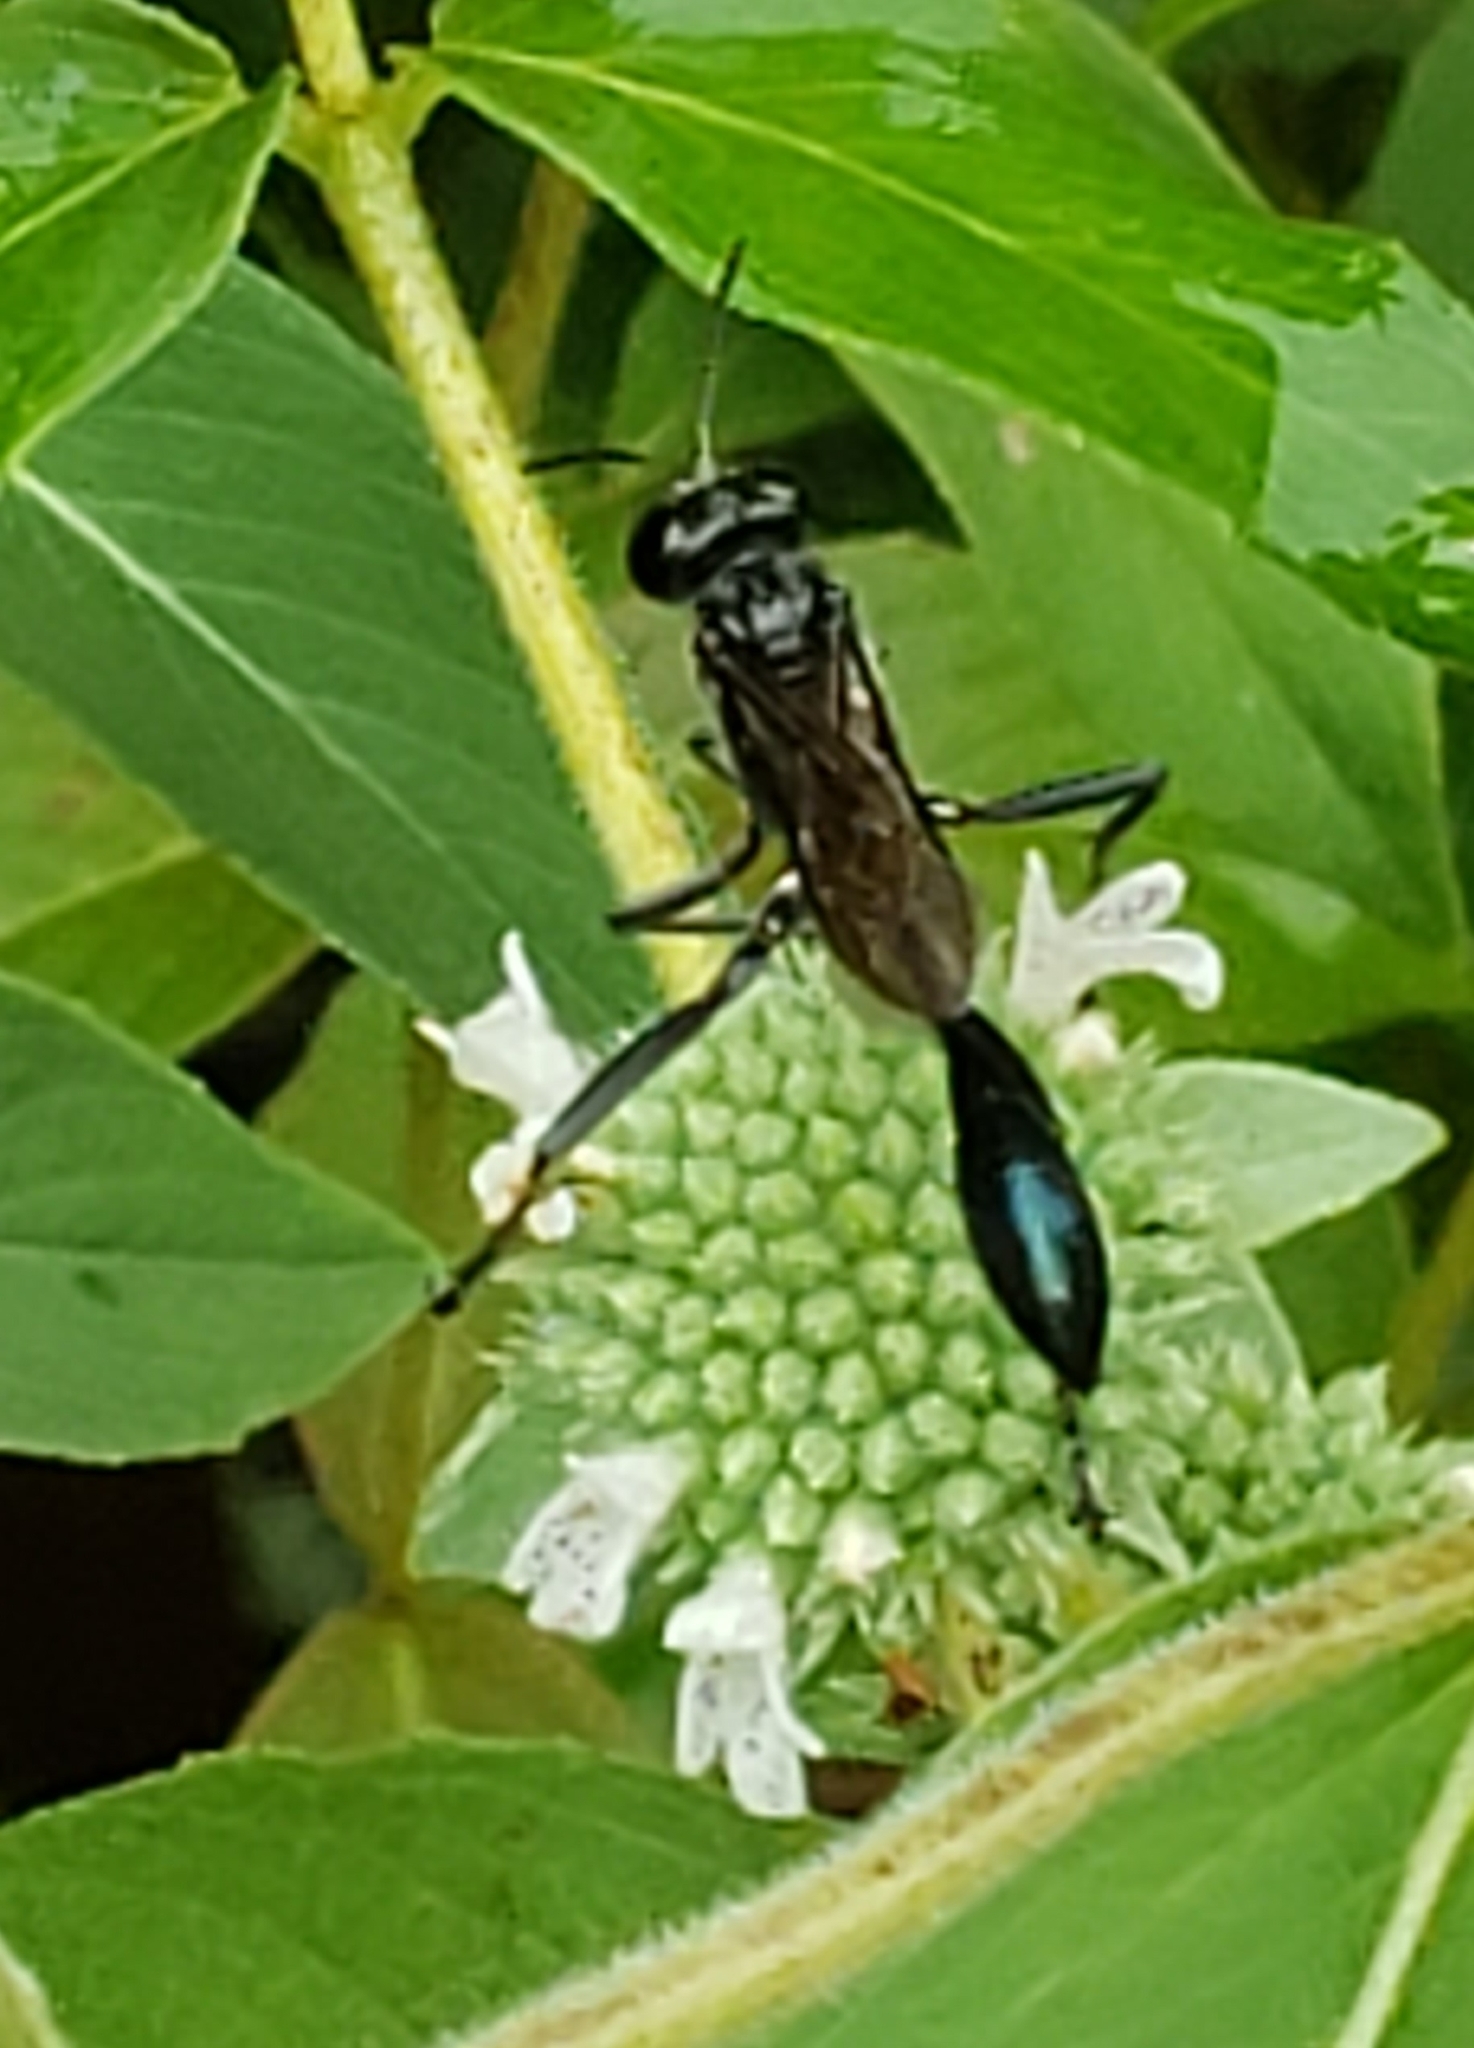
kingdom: Animalia
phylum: Arthropoda
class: Insecta
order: Hymenoptera
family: Sphecidae
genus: Eremnophila
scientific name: Eremnophila aureonotata
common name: Gold-marked thread-waisted wasp
